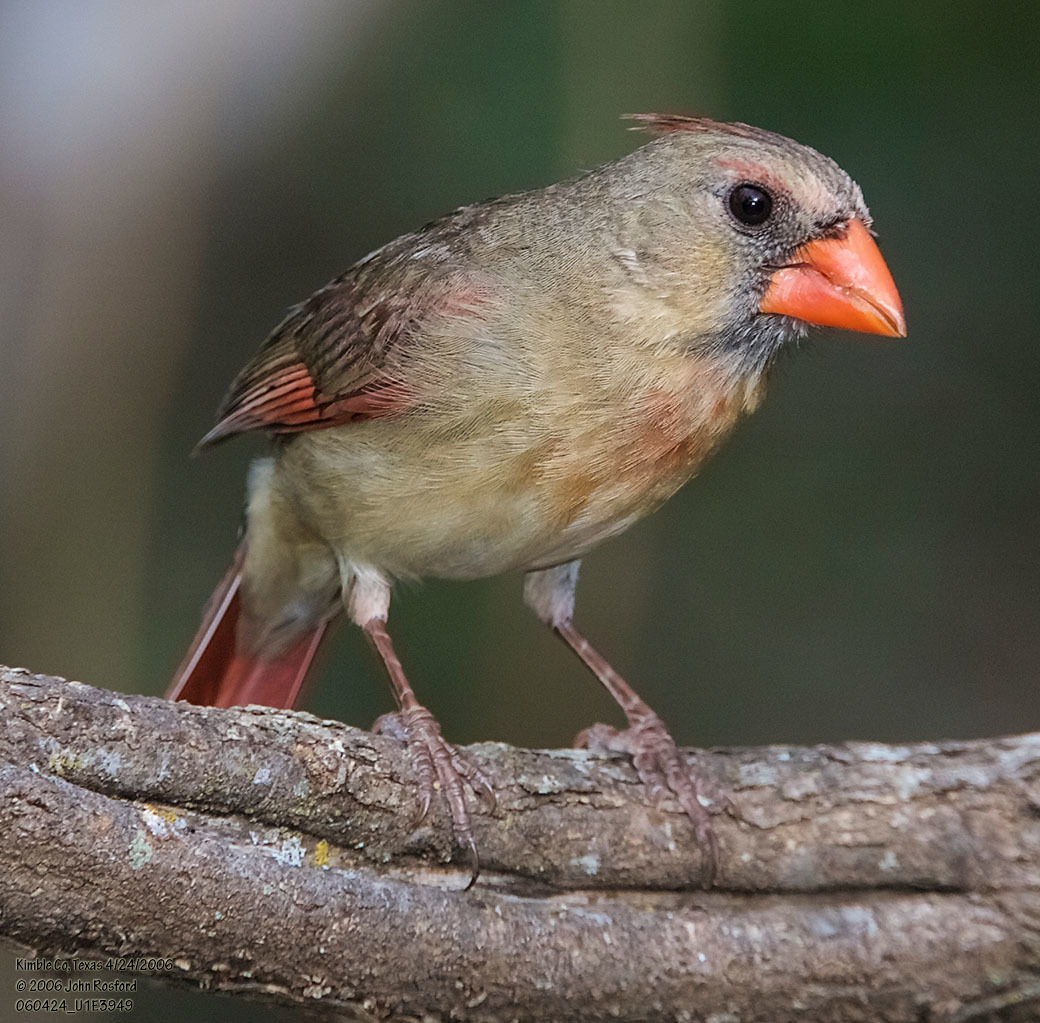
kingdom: Animalia
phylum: Chordata
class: Aves
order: Passeriformes
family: Cardinalidae
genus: Cardinalis
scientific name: Cardinalis cardinalis
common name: Northern cardinal
